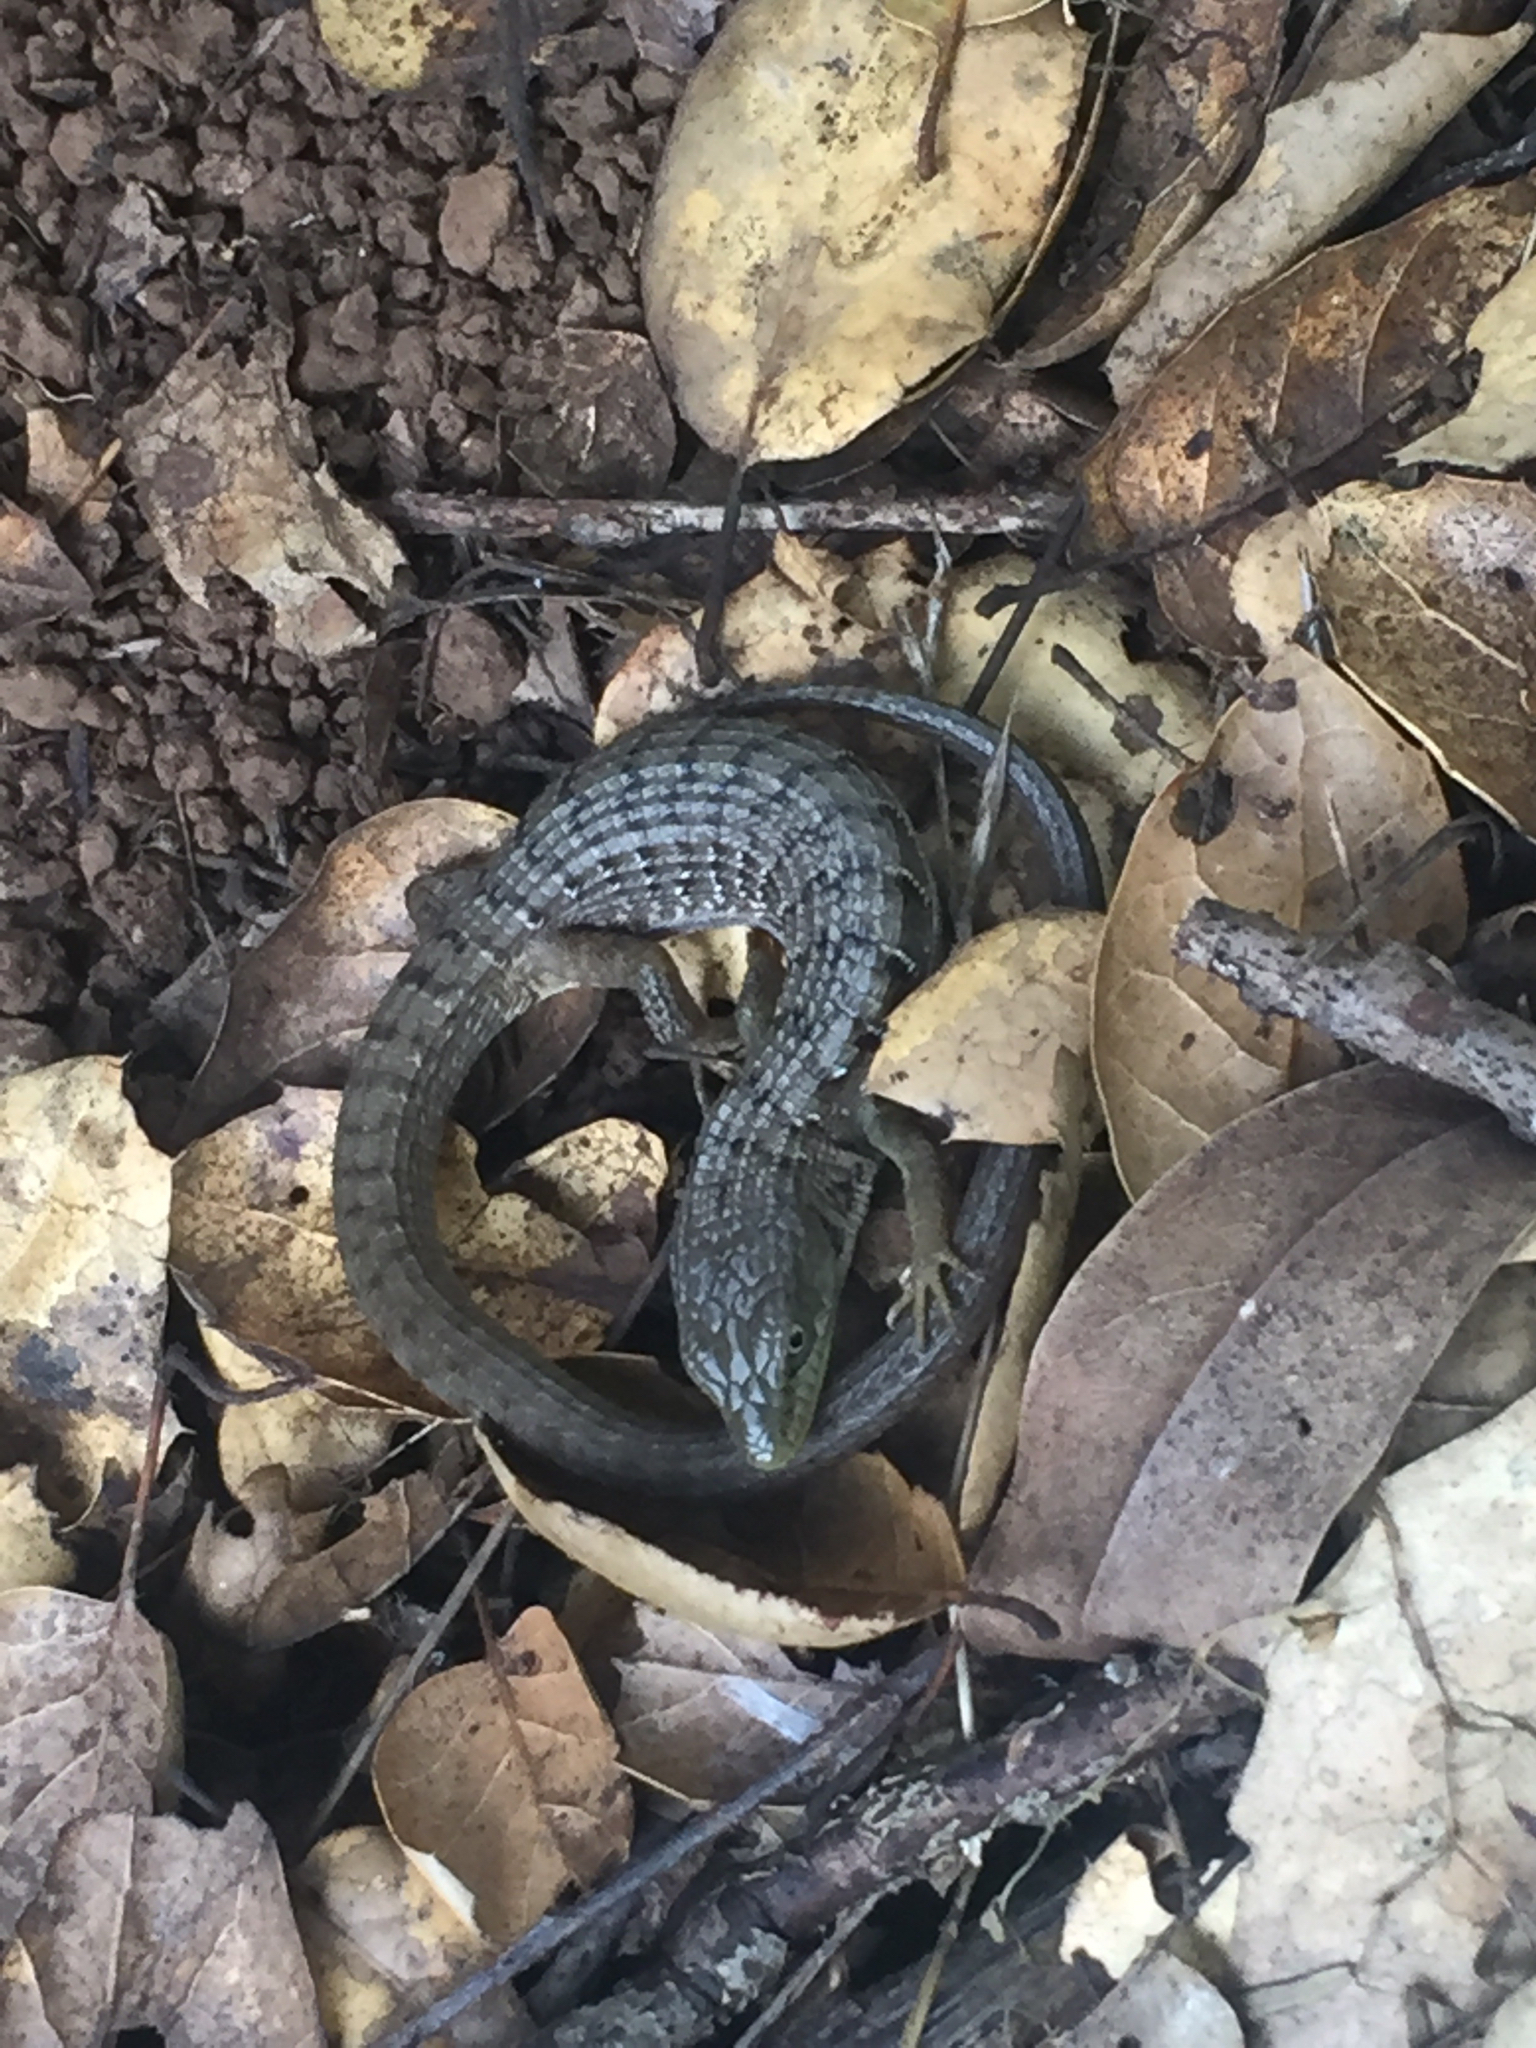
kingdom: Animalia
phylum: Chordata
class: Squamata
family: Anguidae
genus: Elgaria
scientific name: Elgaria multicarinata
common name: Southern alligator lizard
